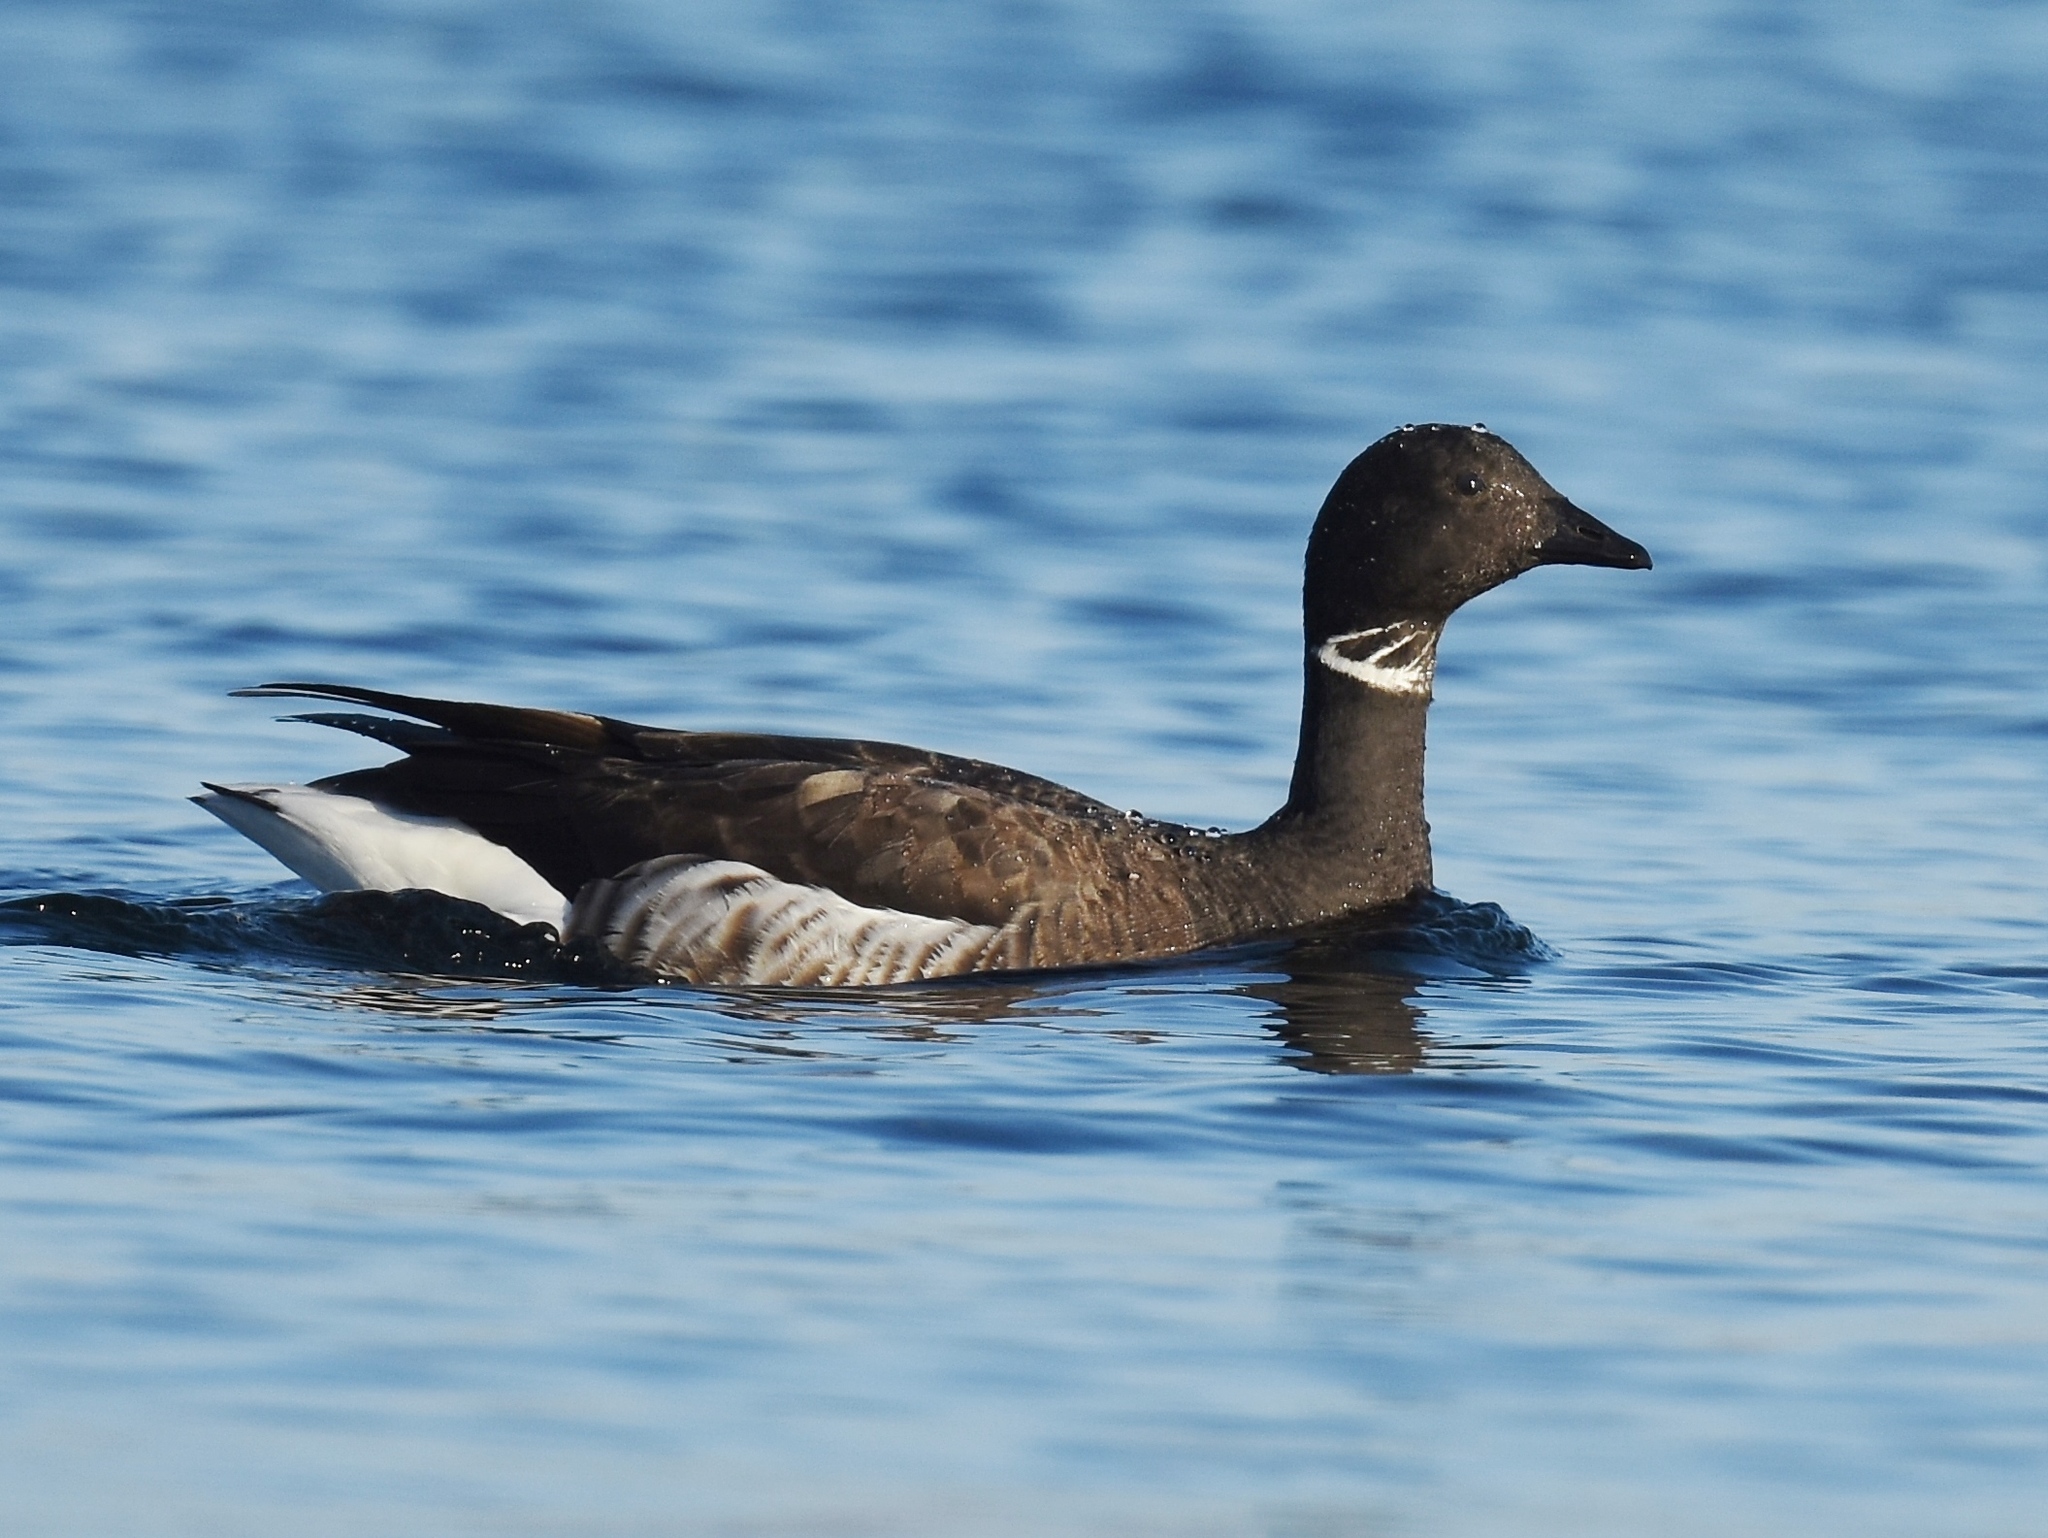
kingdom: Animalia
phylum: Chordata
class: Aves
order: Anseriformes
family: Anatidae
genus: Branta
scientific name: Branta bernicla
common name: Brant goose
